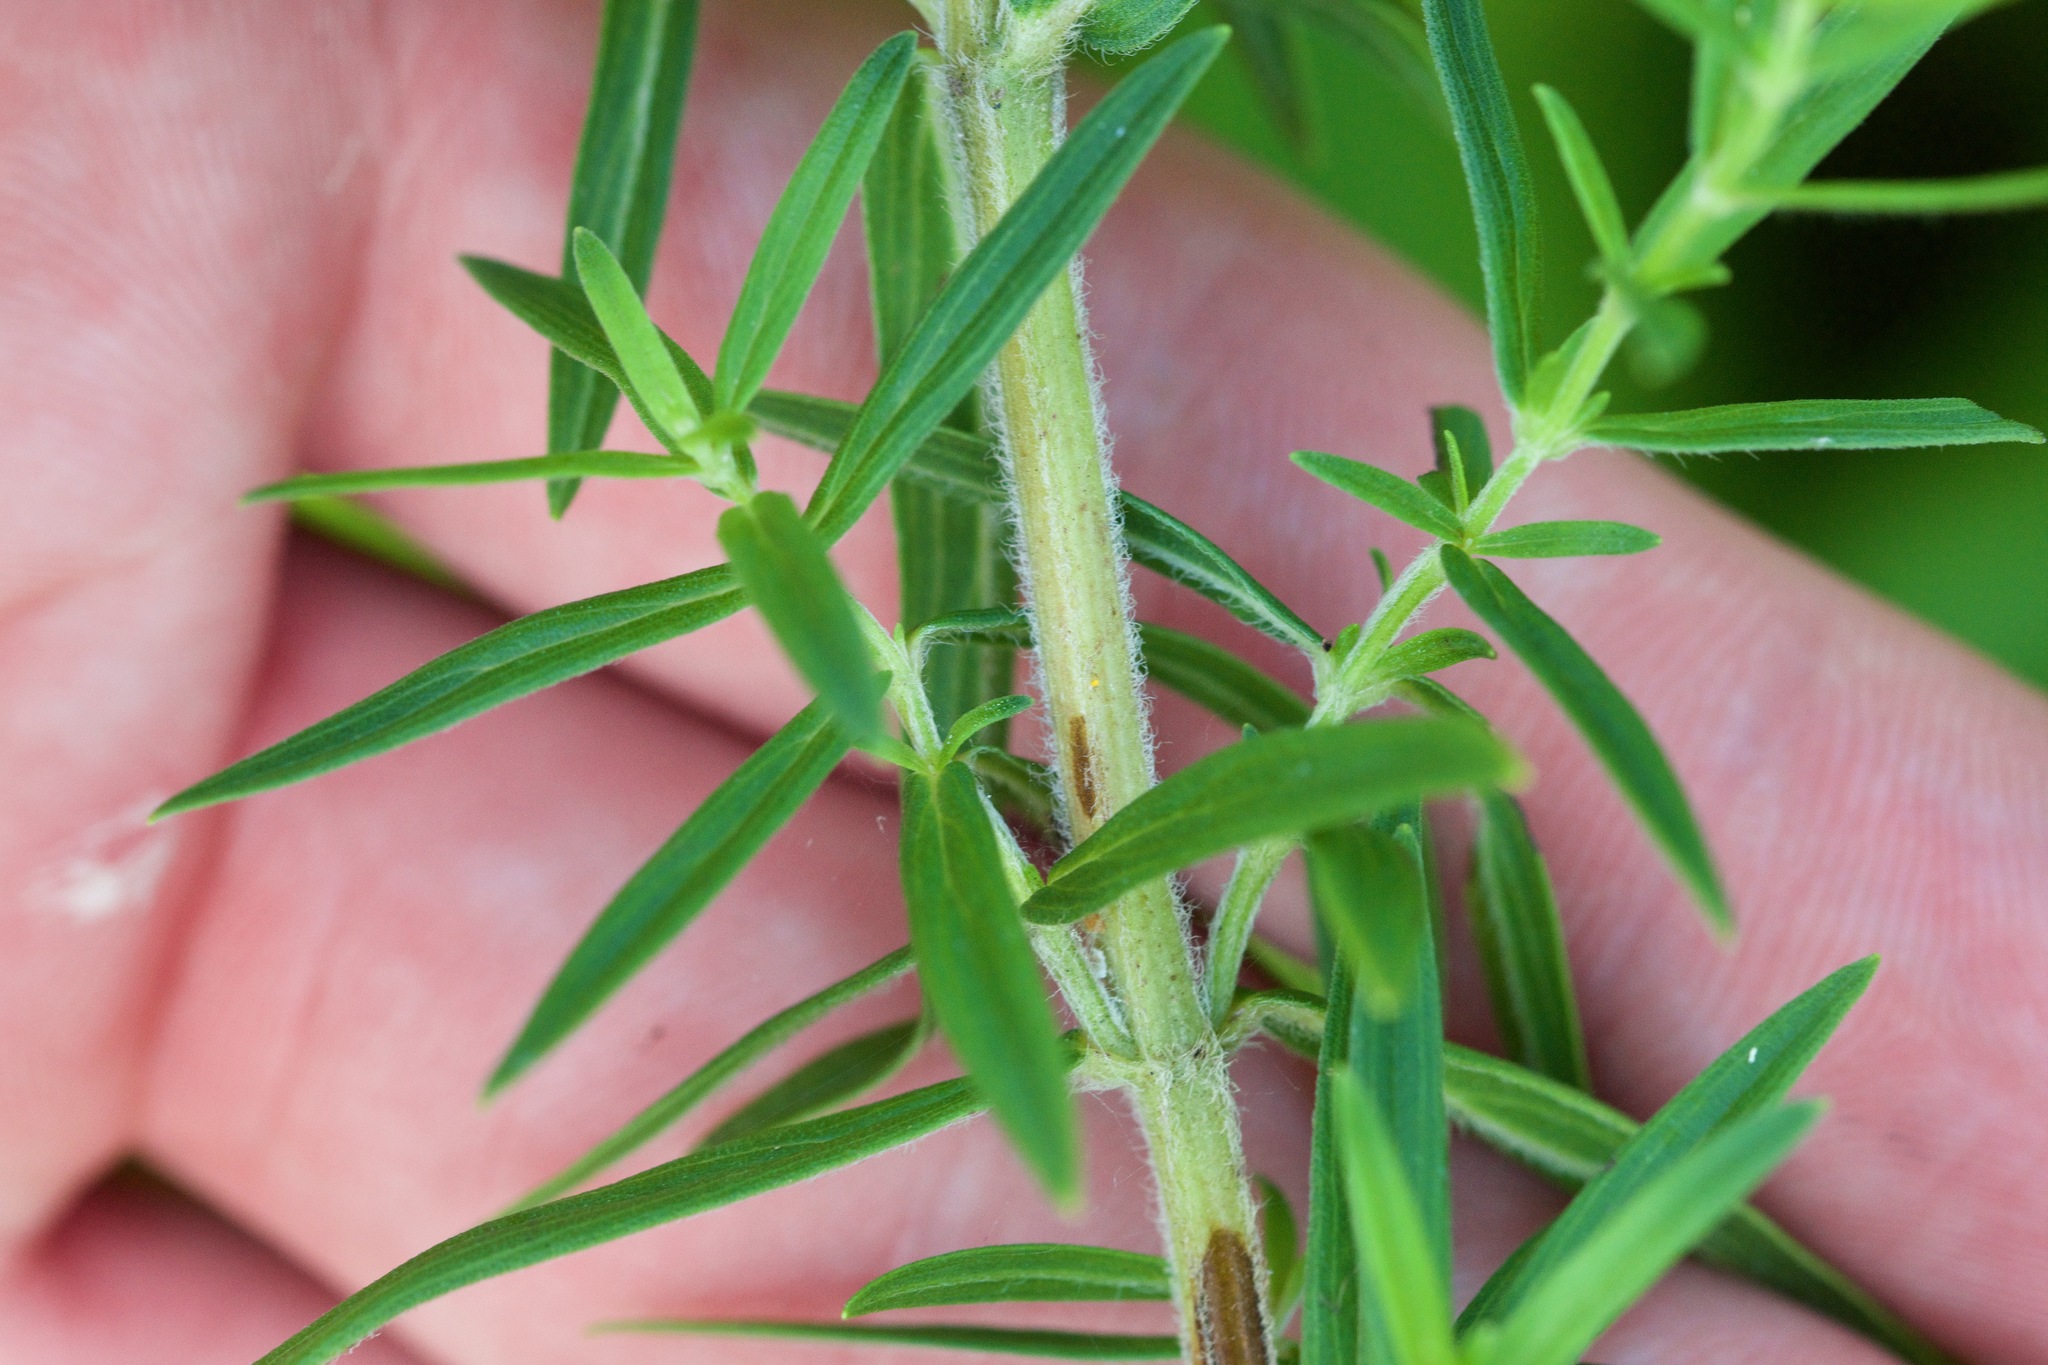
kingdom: Plantae
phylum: Tracheophyta
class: Magnoliopsida
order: Lamiales
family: Lamiaceae
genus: Pycnanthemum
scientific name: Pycnanthemum virginianum
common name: Virginia mountain-mint
